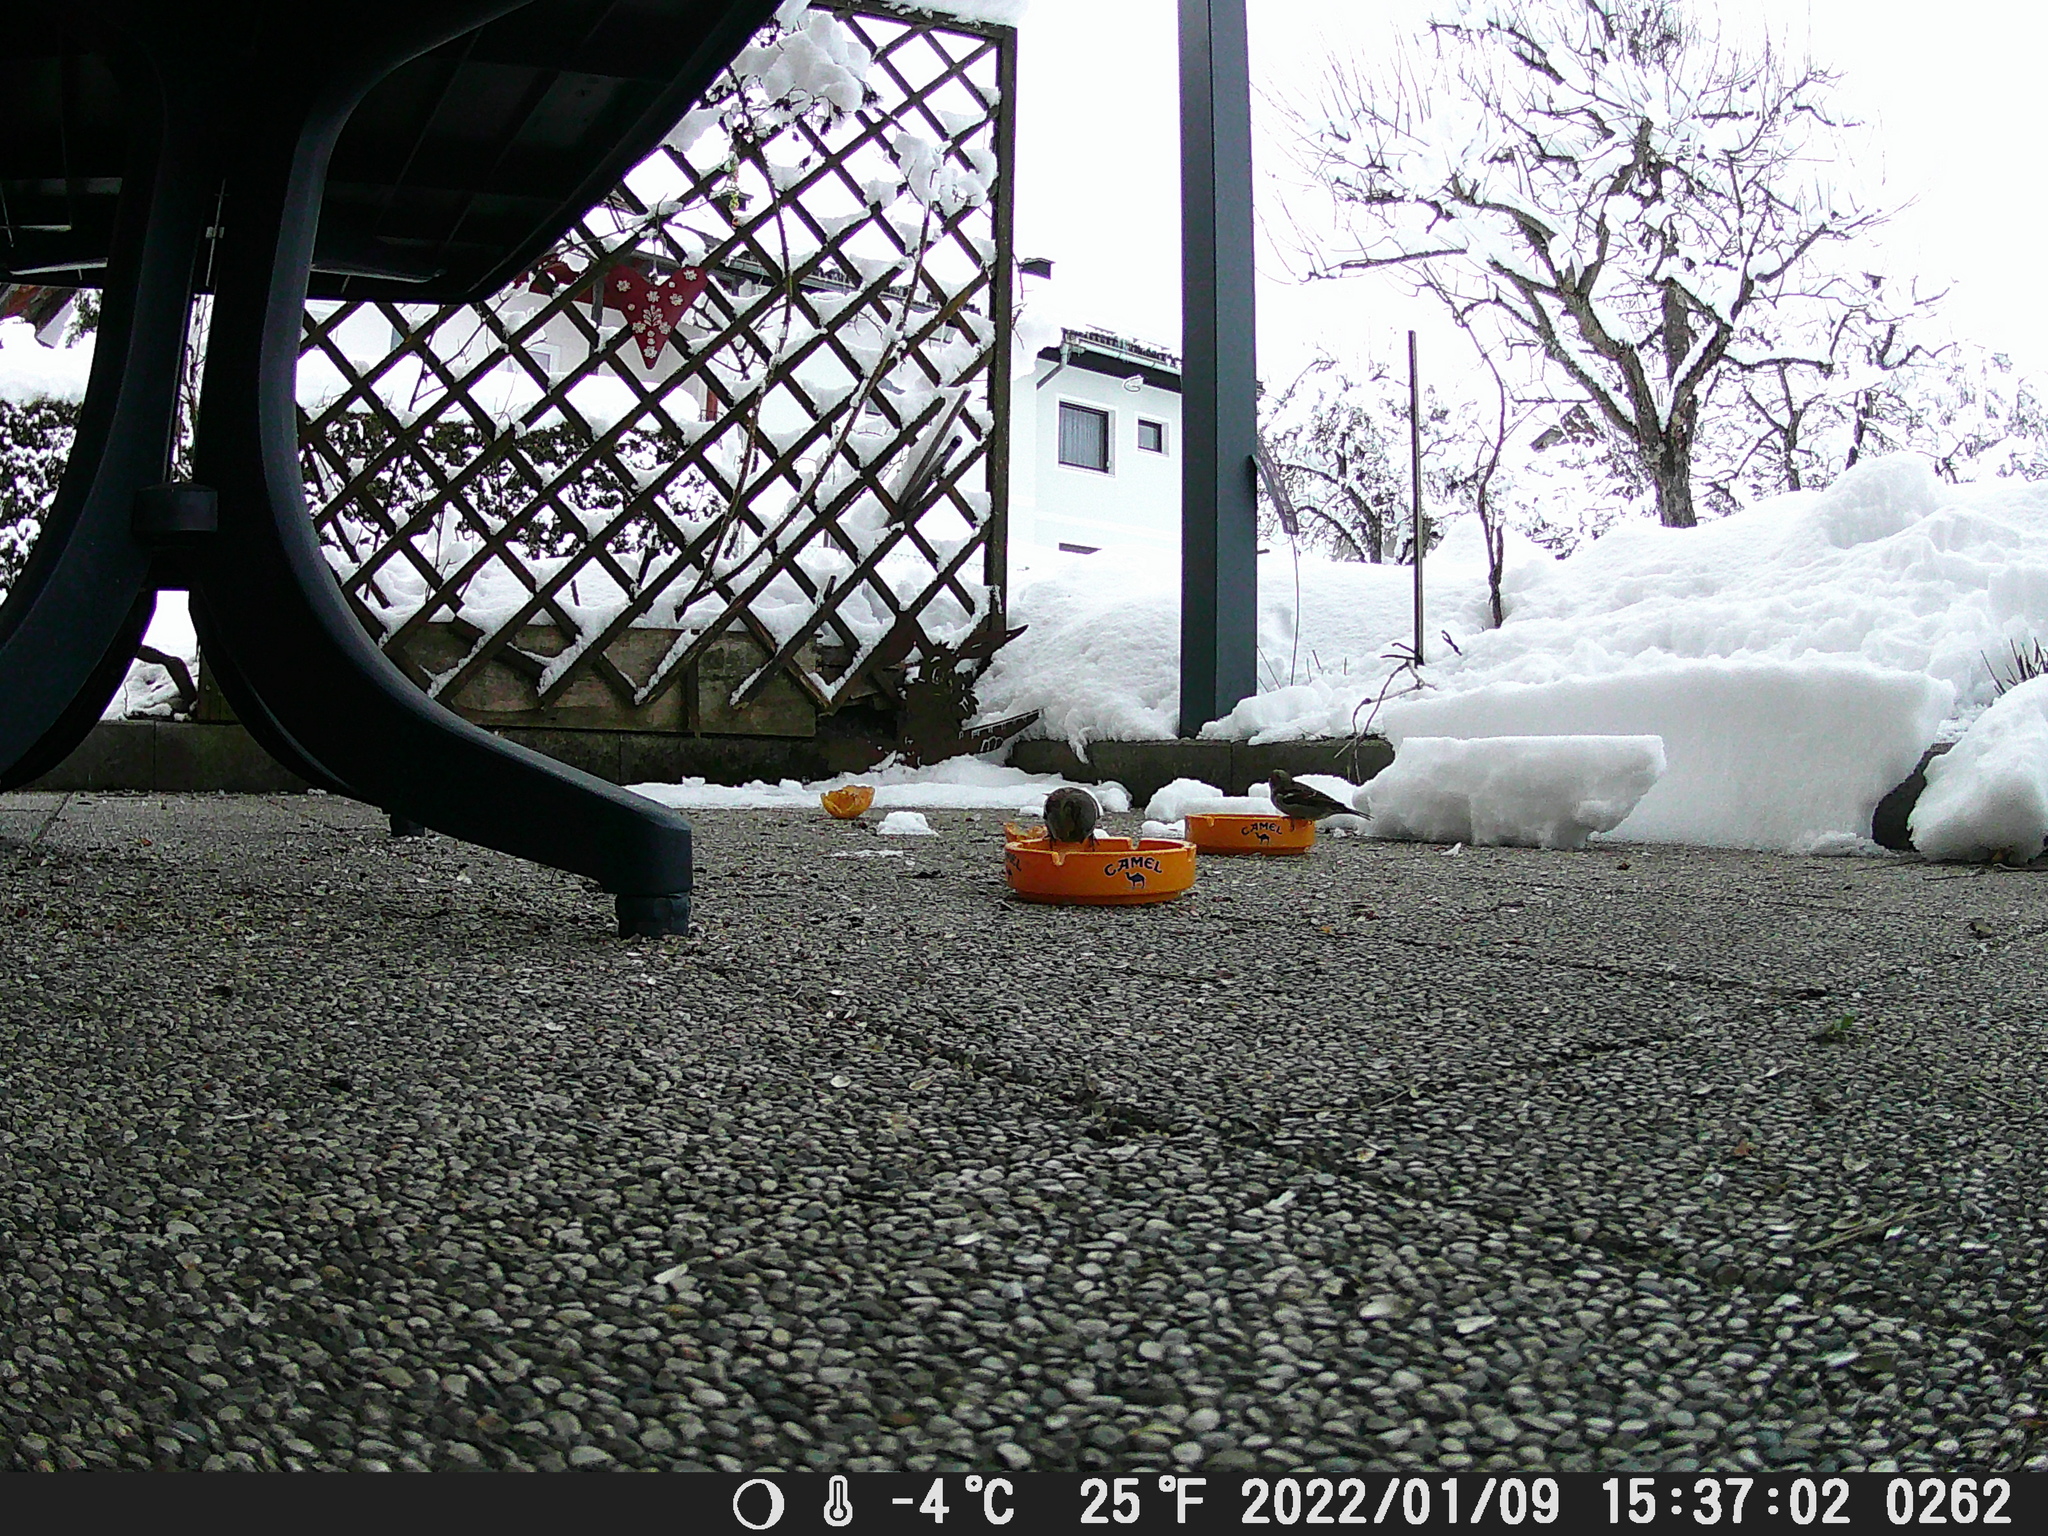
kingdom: Animalia
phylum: Chordata
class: Aves
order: Passeriformes
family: Passeridae
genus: Passer
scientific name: Passer domesticus
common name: House sparrow
